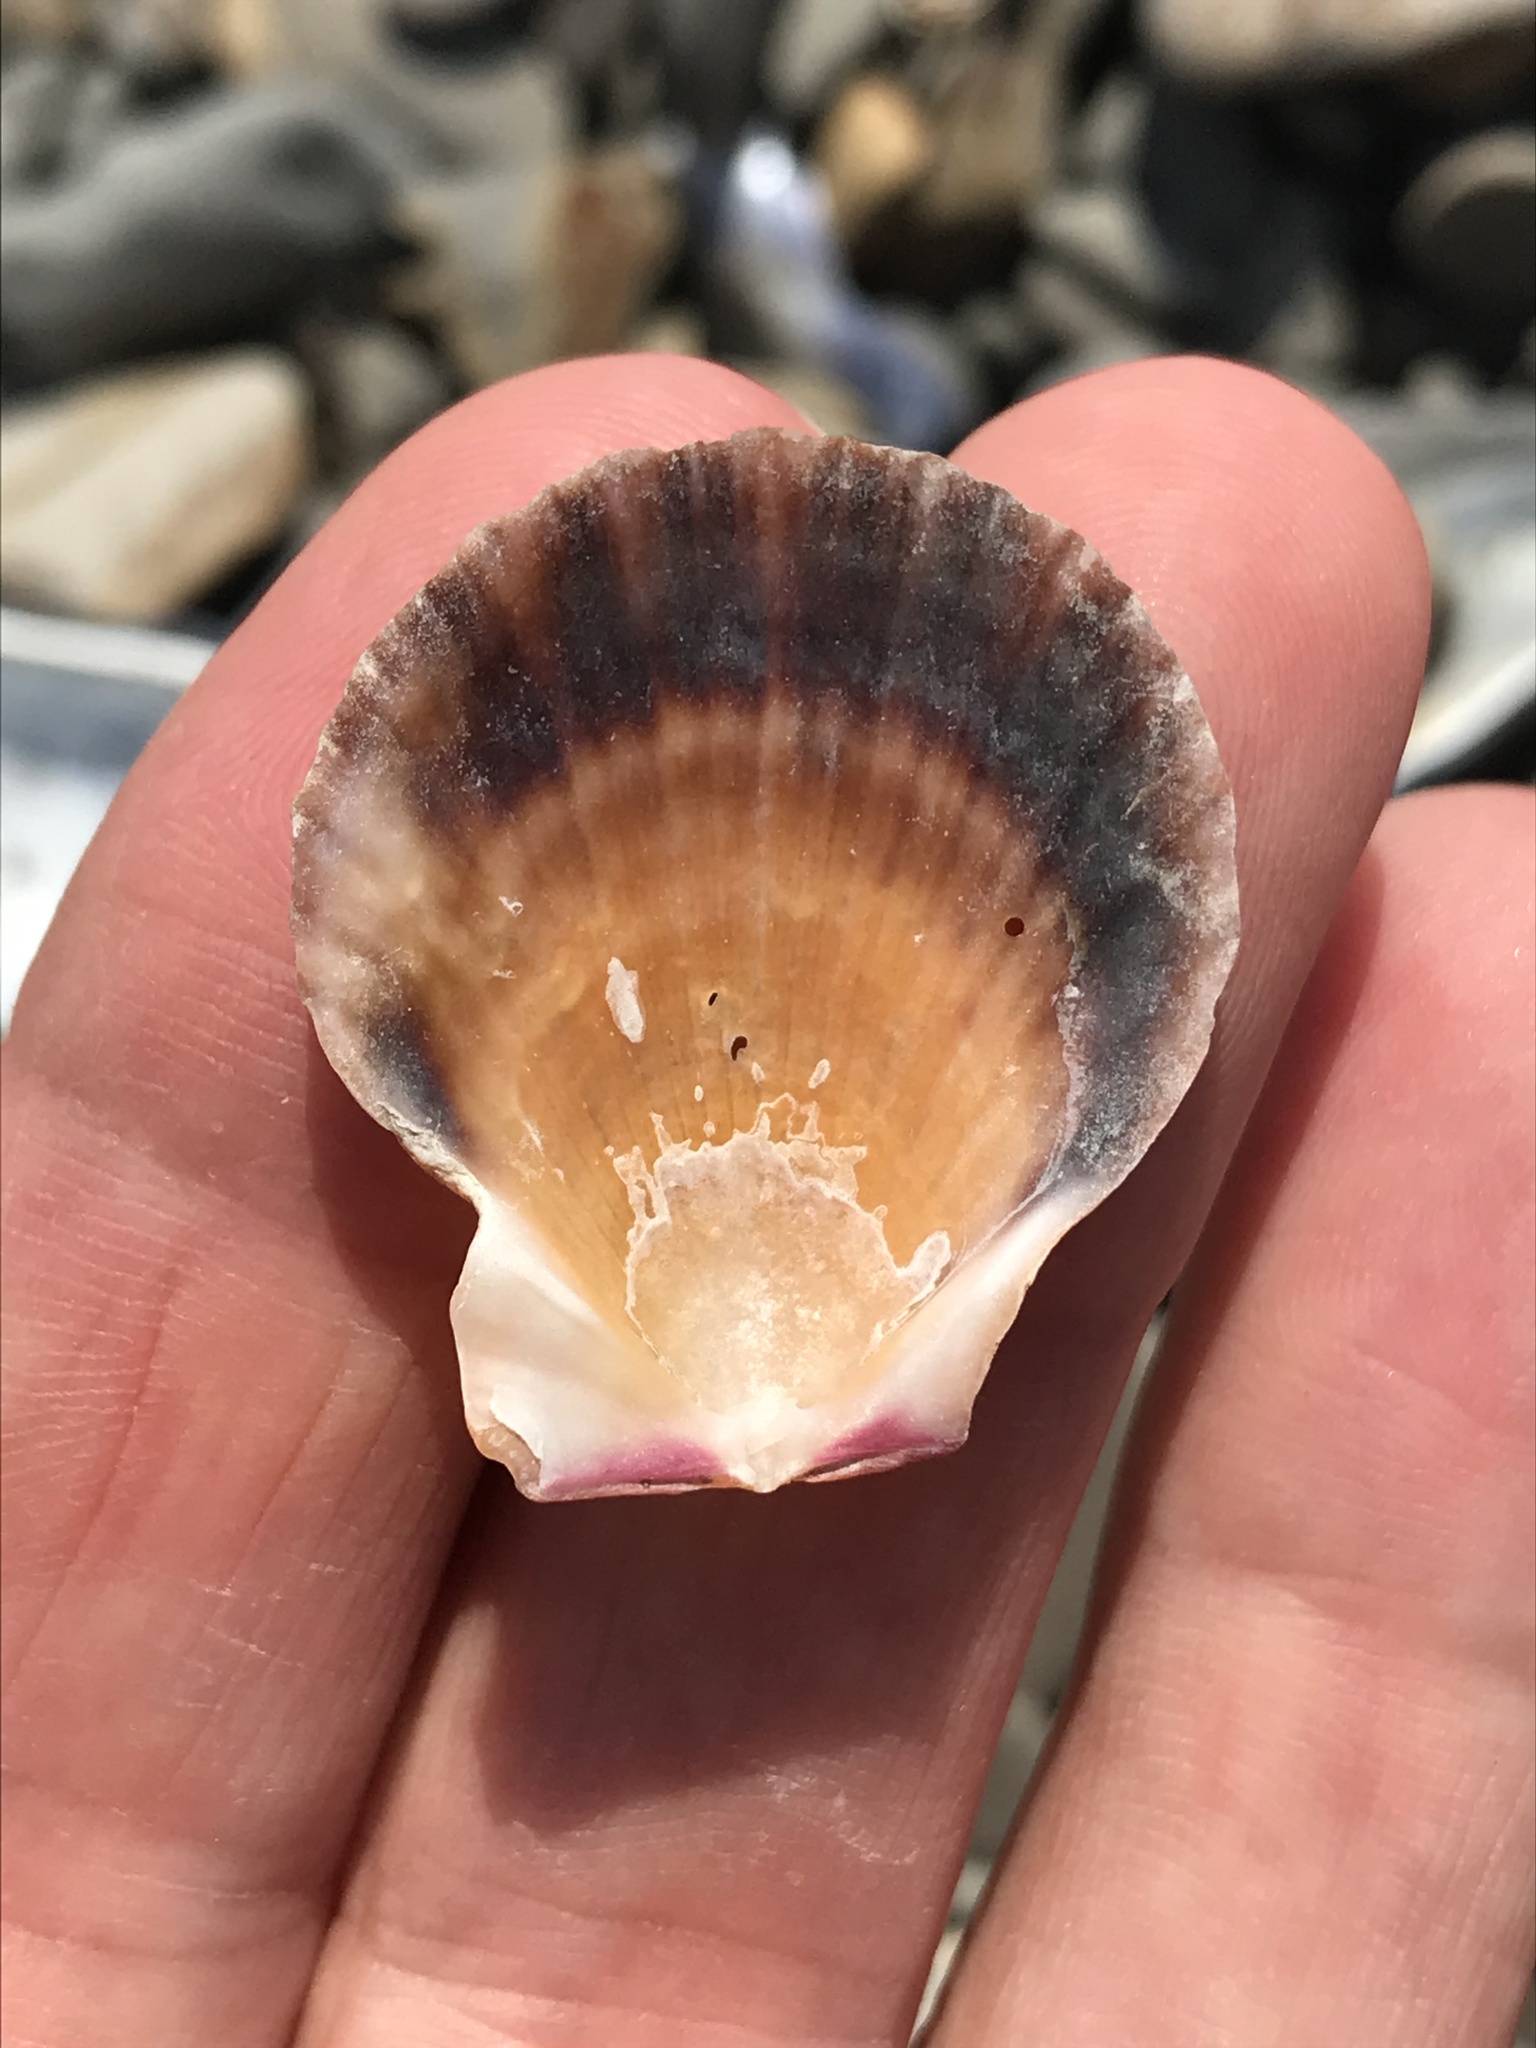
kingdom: Animalia
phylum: Mollusca
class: Bivalvia
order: Pectinida
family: Pectinidae
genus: Crassadoma
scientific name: Crassadoma gigantea
